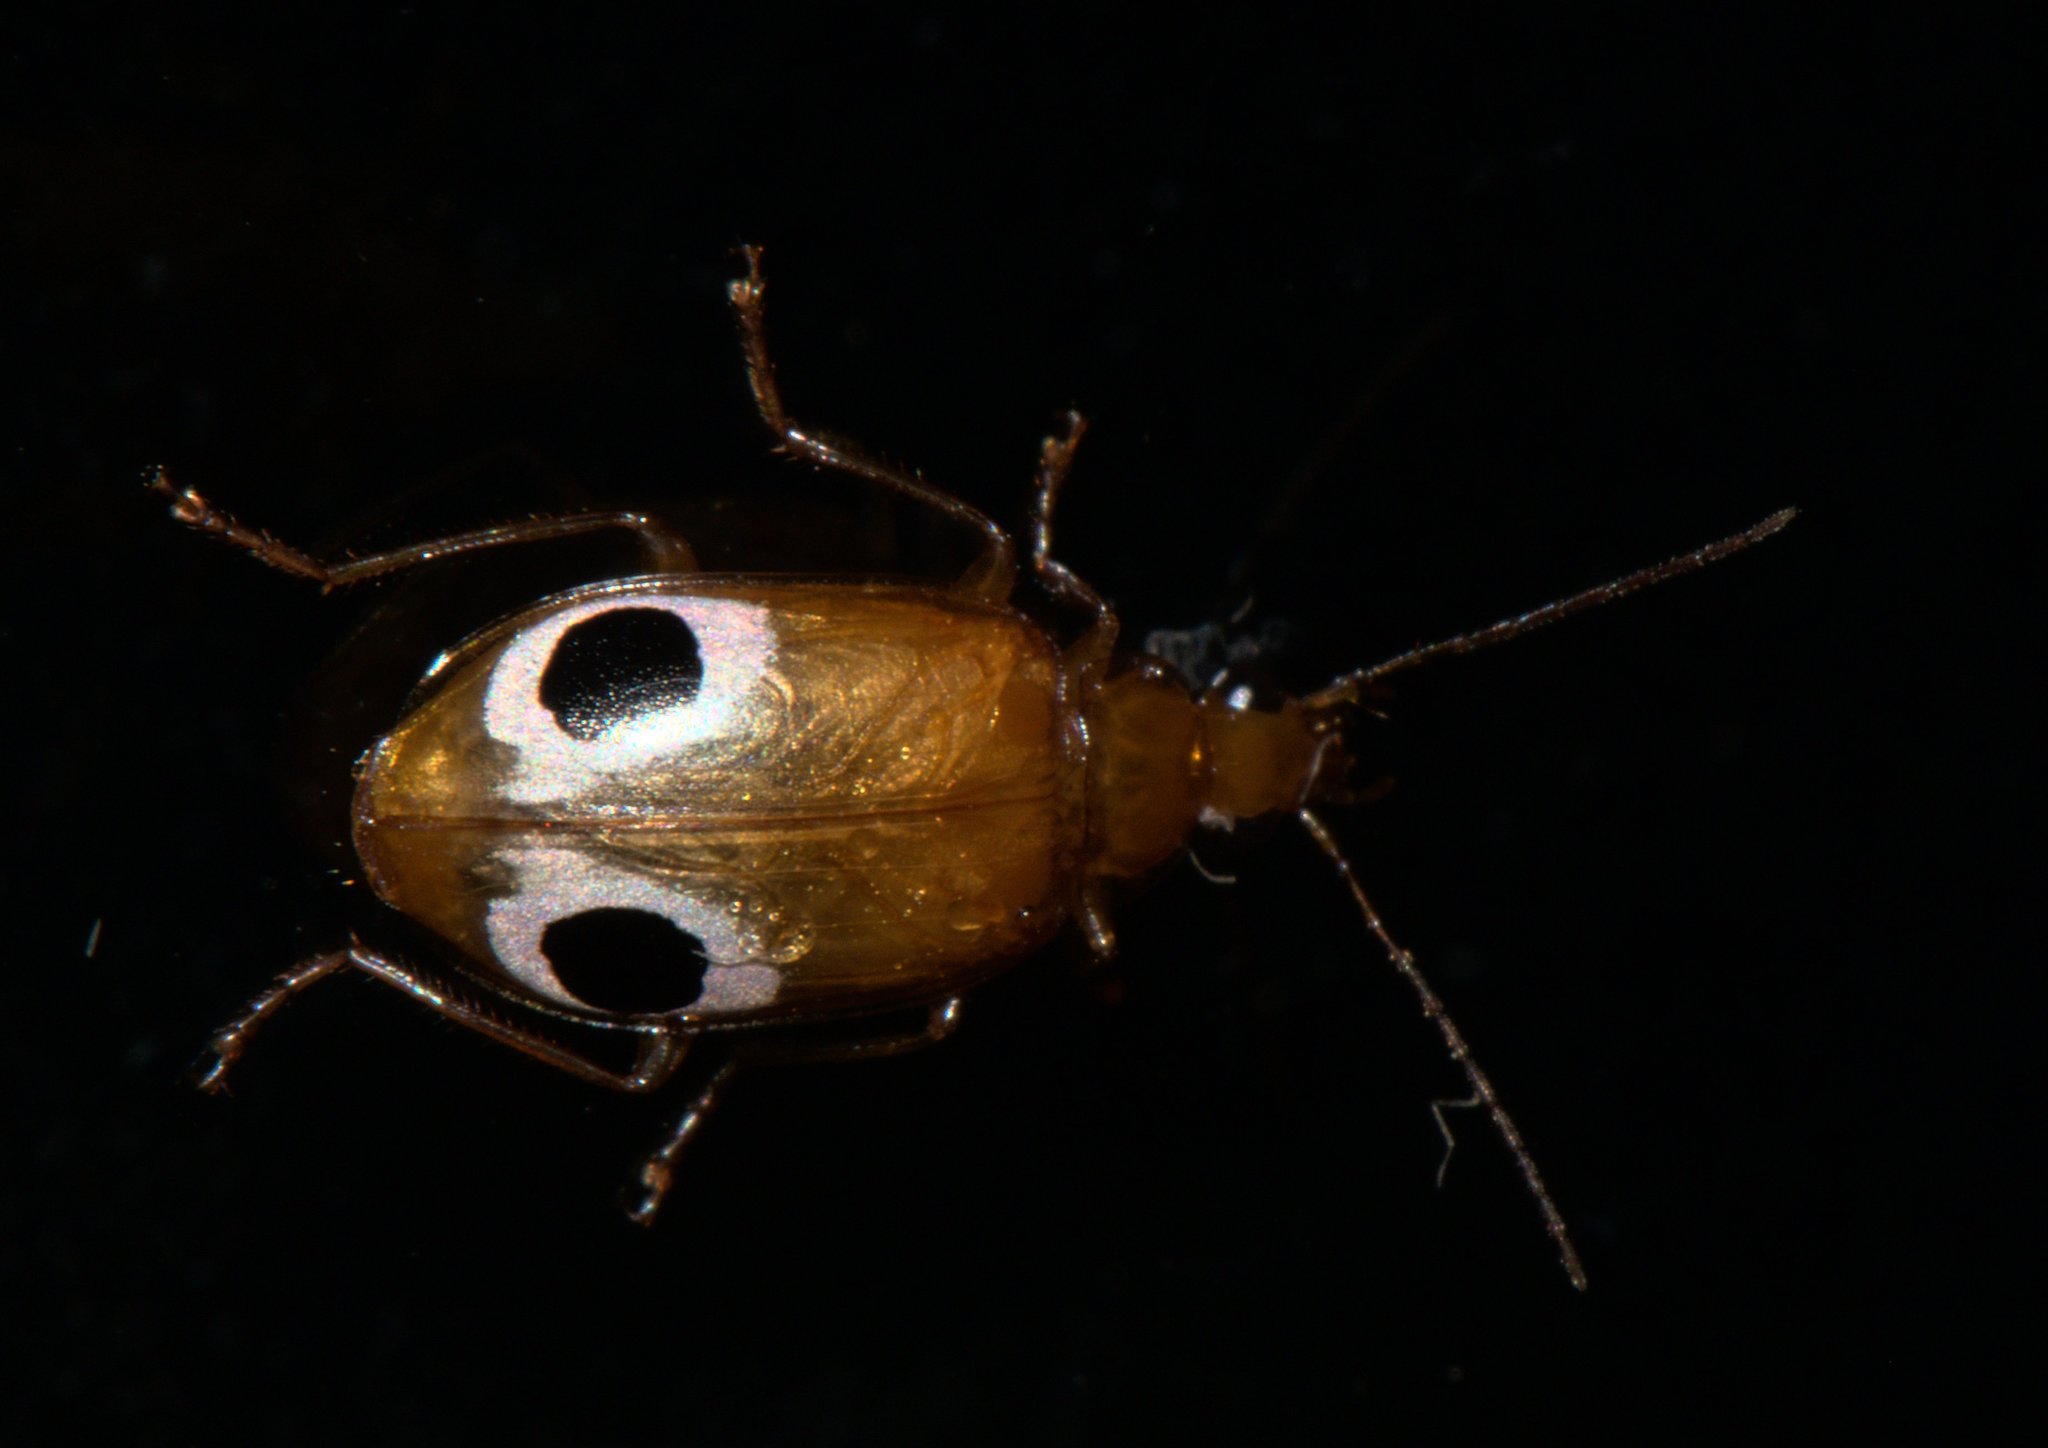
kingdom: Animalia
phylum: Arthropoda
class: Insecta
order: Coleoptera
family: Carabidae
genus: Lebidia
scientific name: Lebidia bioculata
